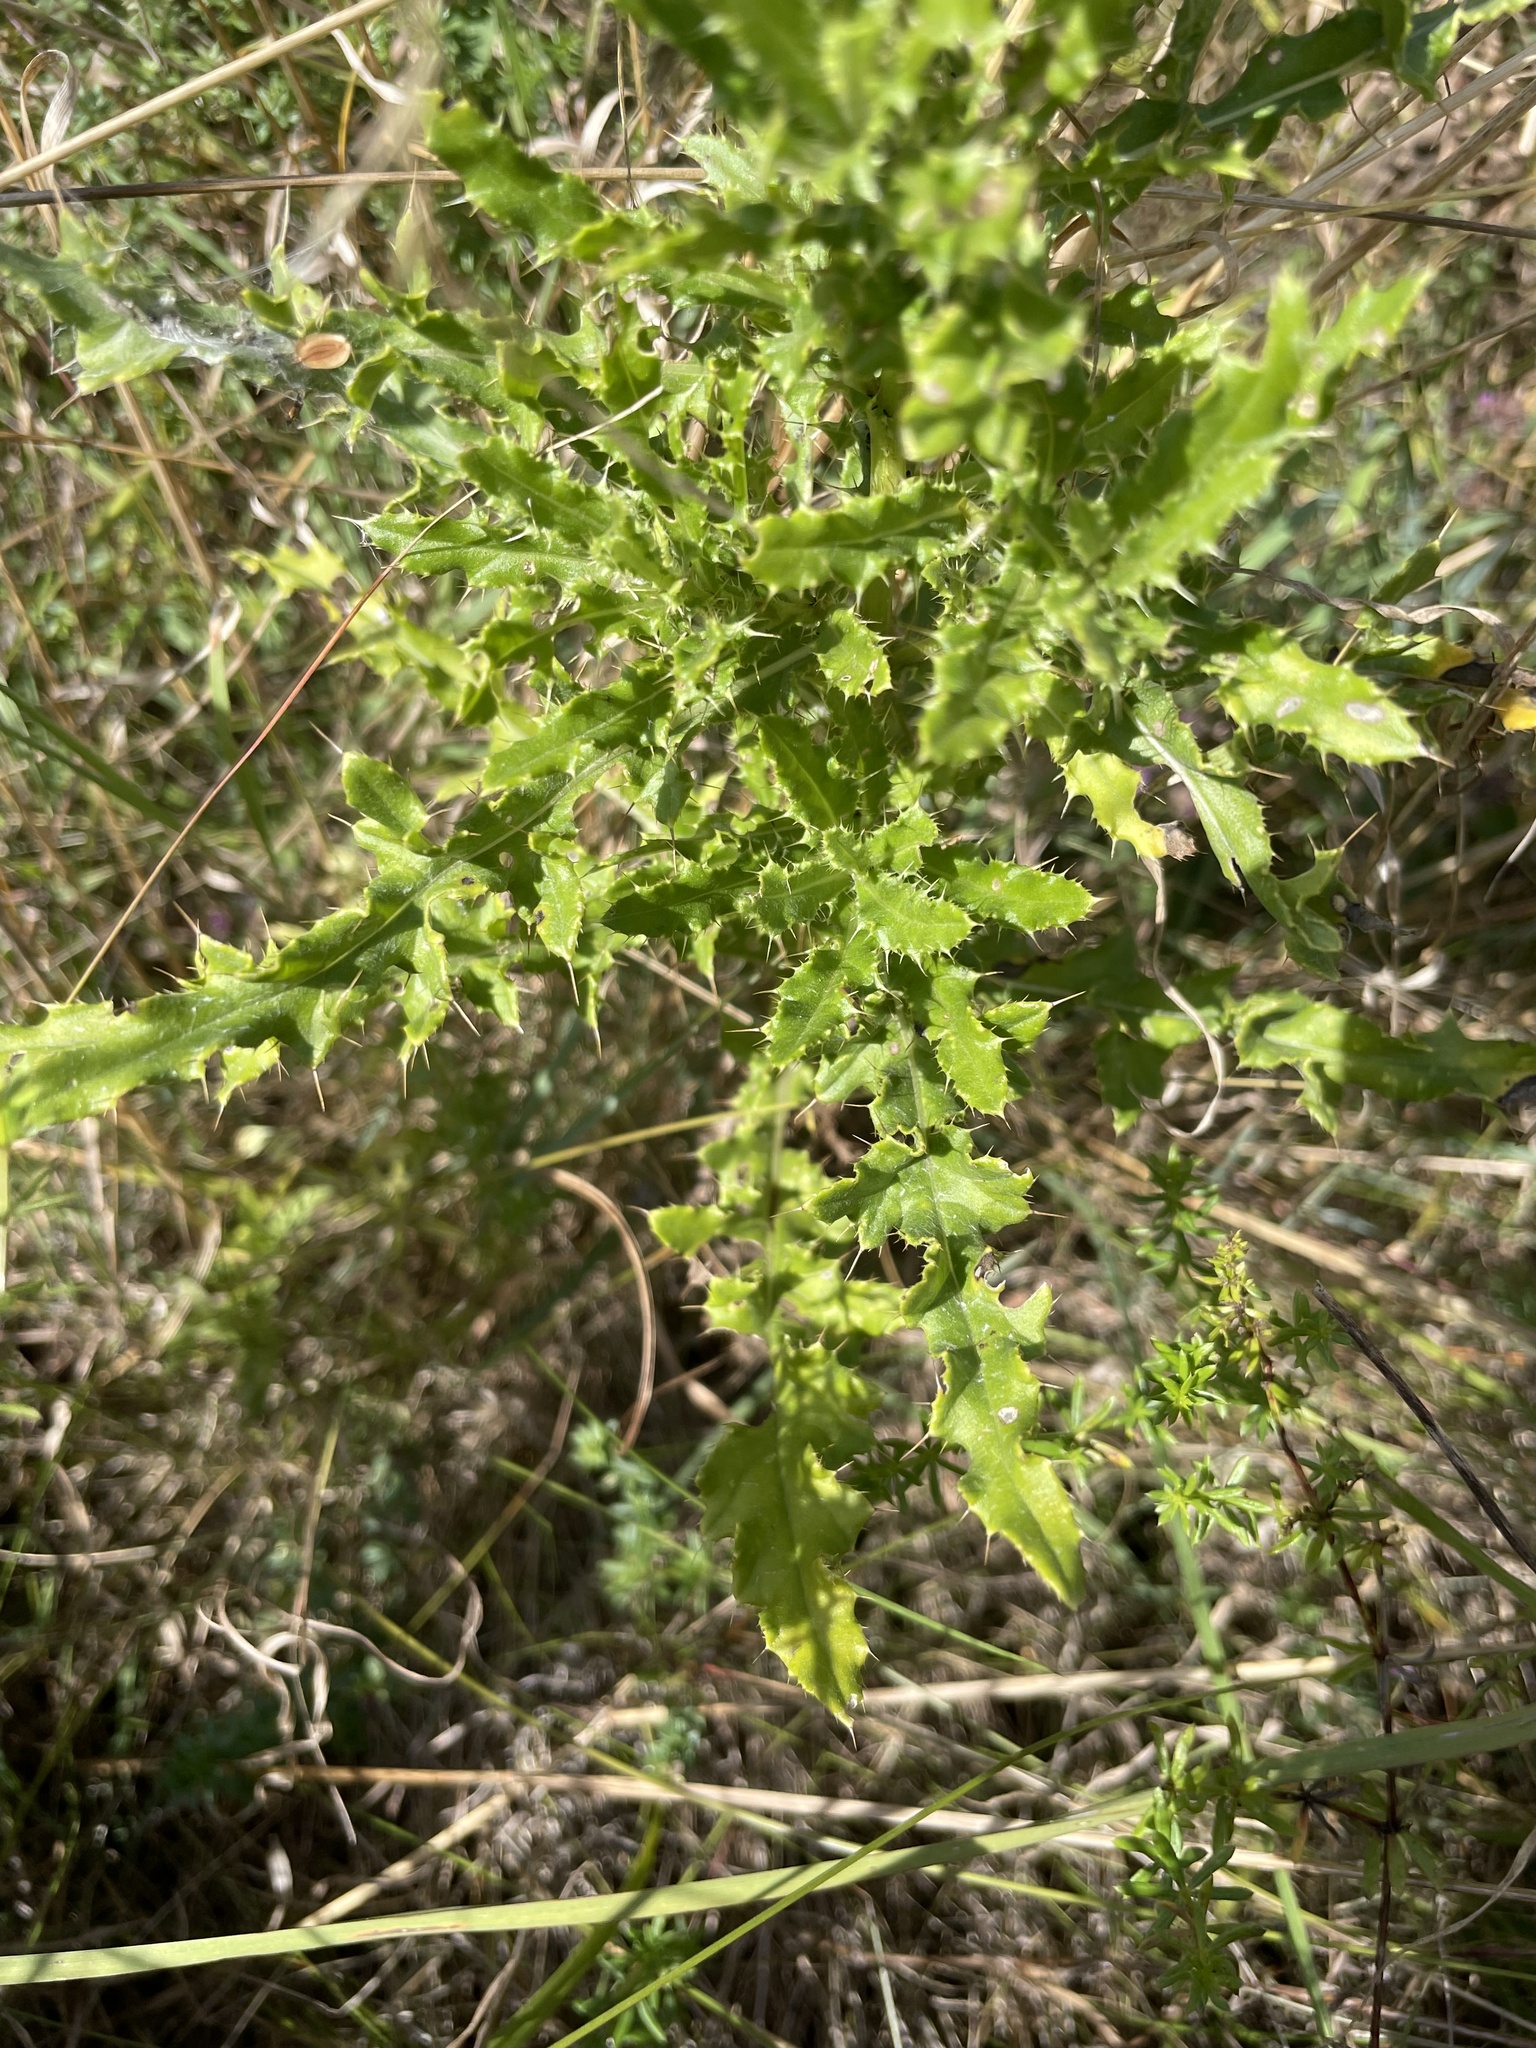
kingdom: Plantae
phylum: Tracheophyta
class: Magnoliopsida
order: Asterales
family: Asteraceae
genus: Cirsium
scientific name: Cirsium arvense
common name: Creeping thistle
